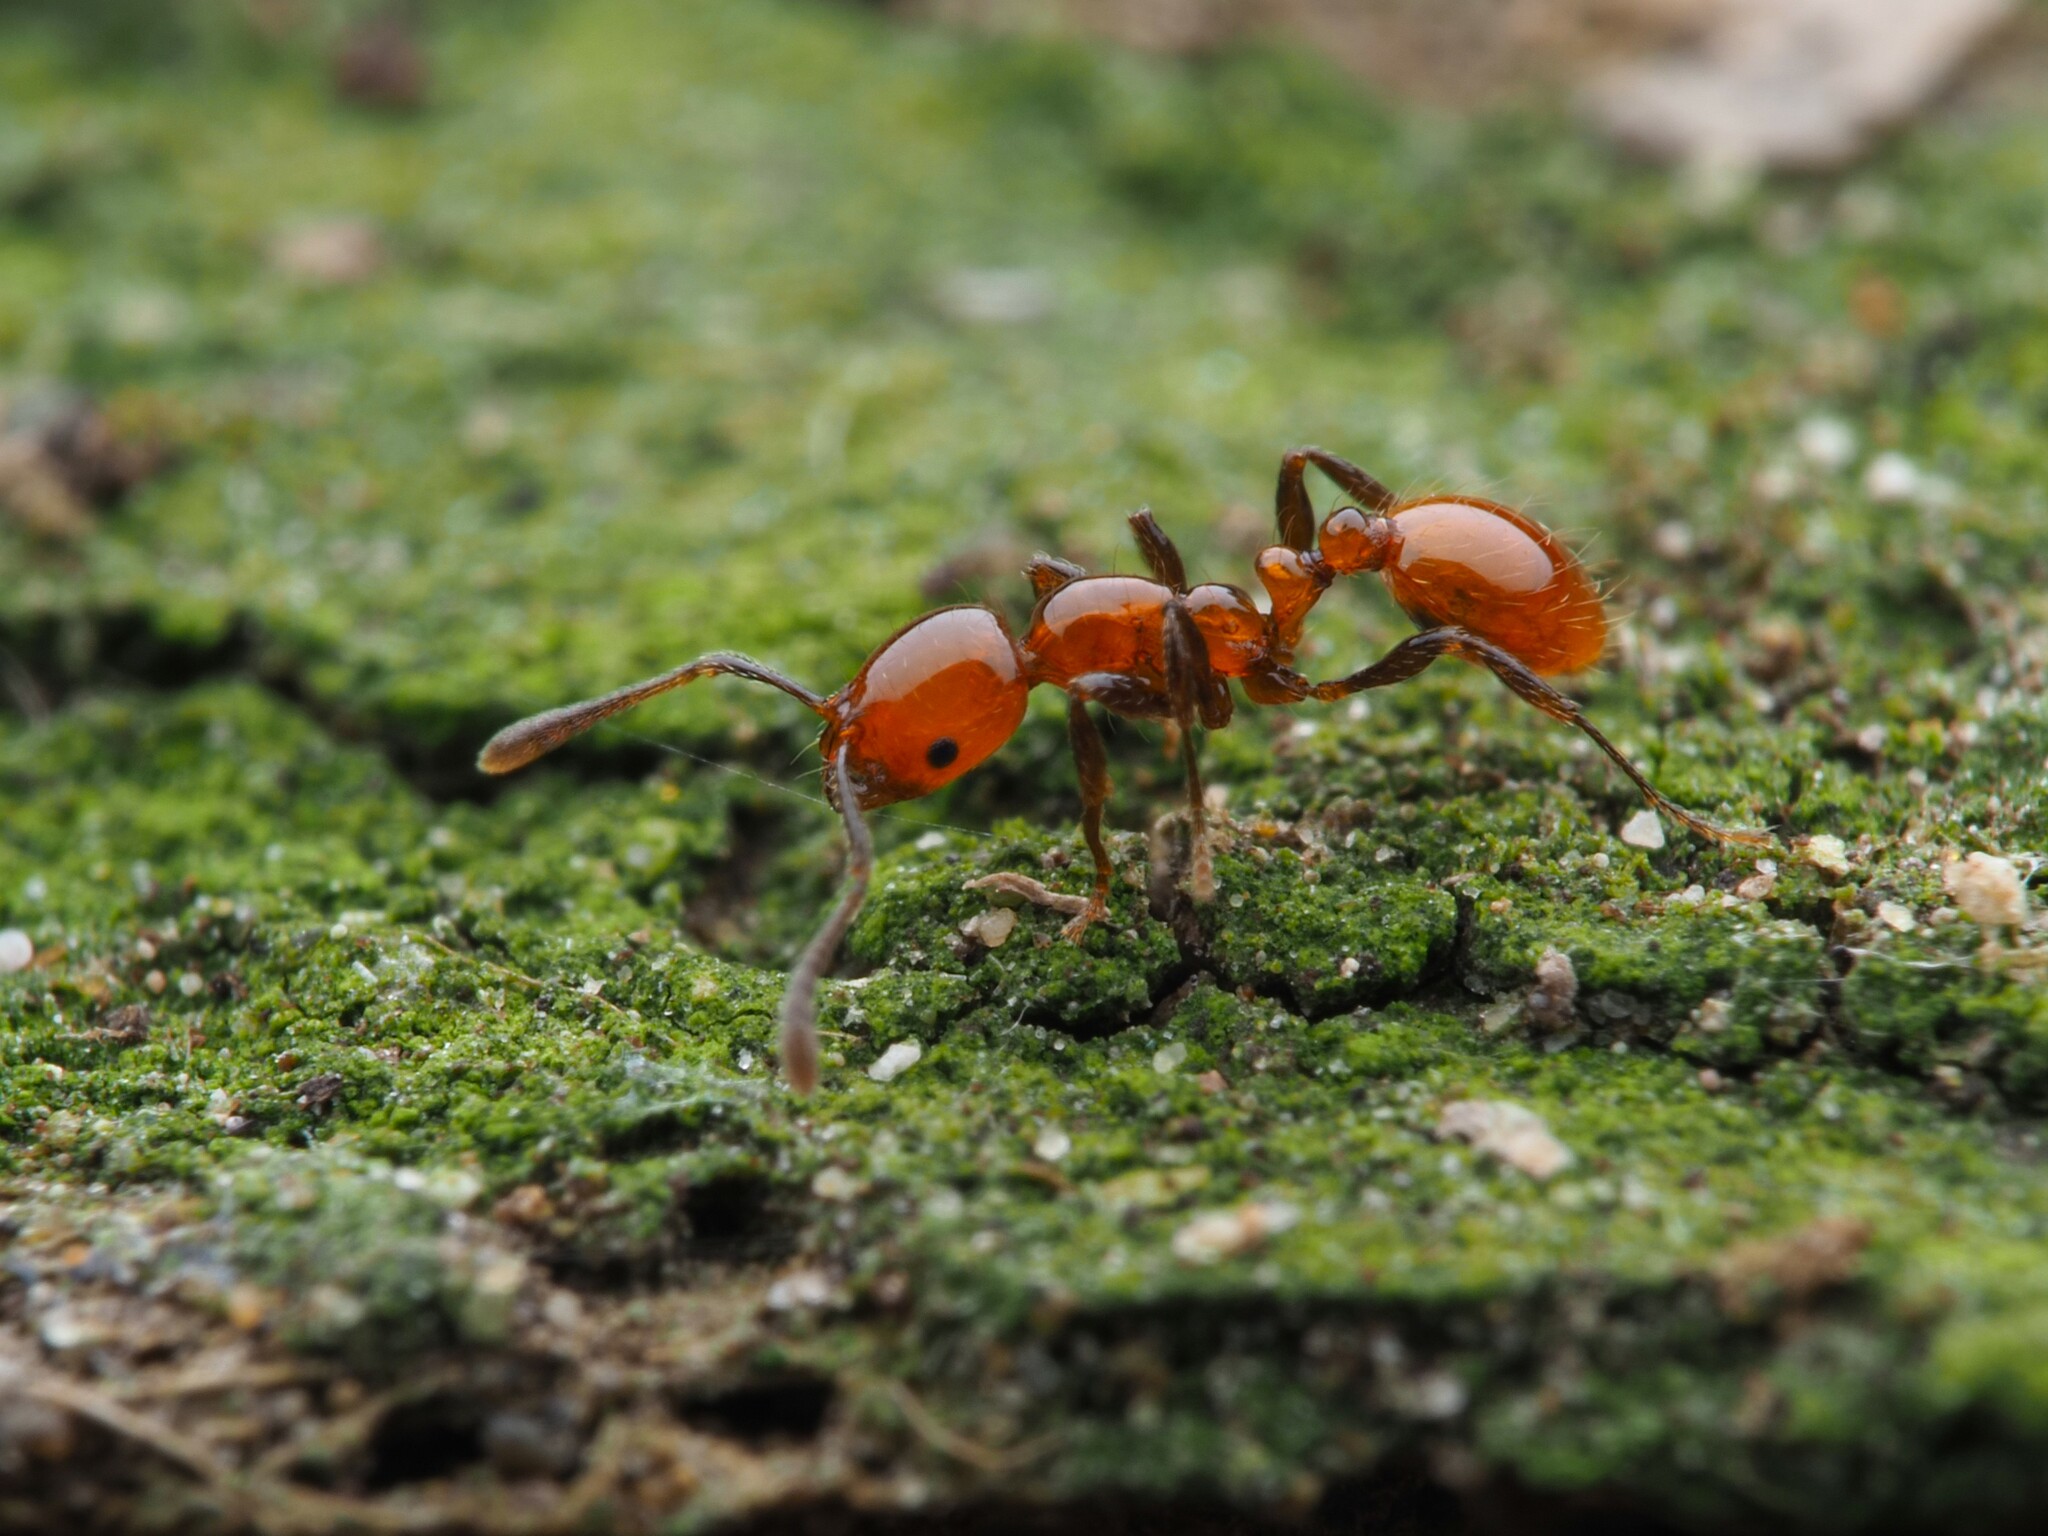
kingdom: Animalia
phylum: Arthropoda
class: Insecta
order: Hymenoptera
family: Formicidae
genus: Monomorium
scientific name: Monomorium antarcticum
